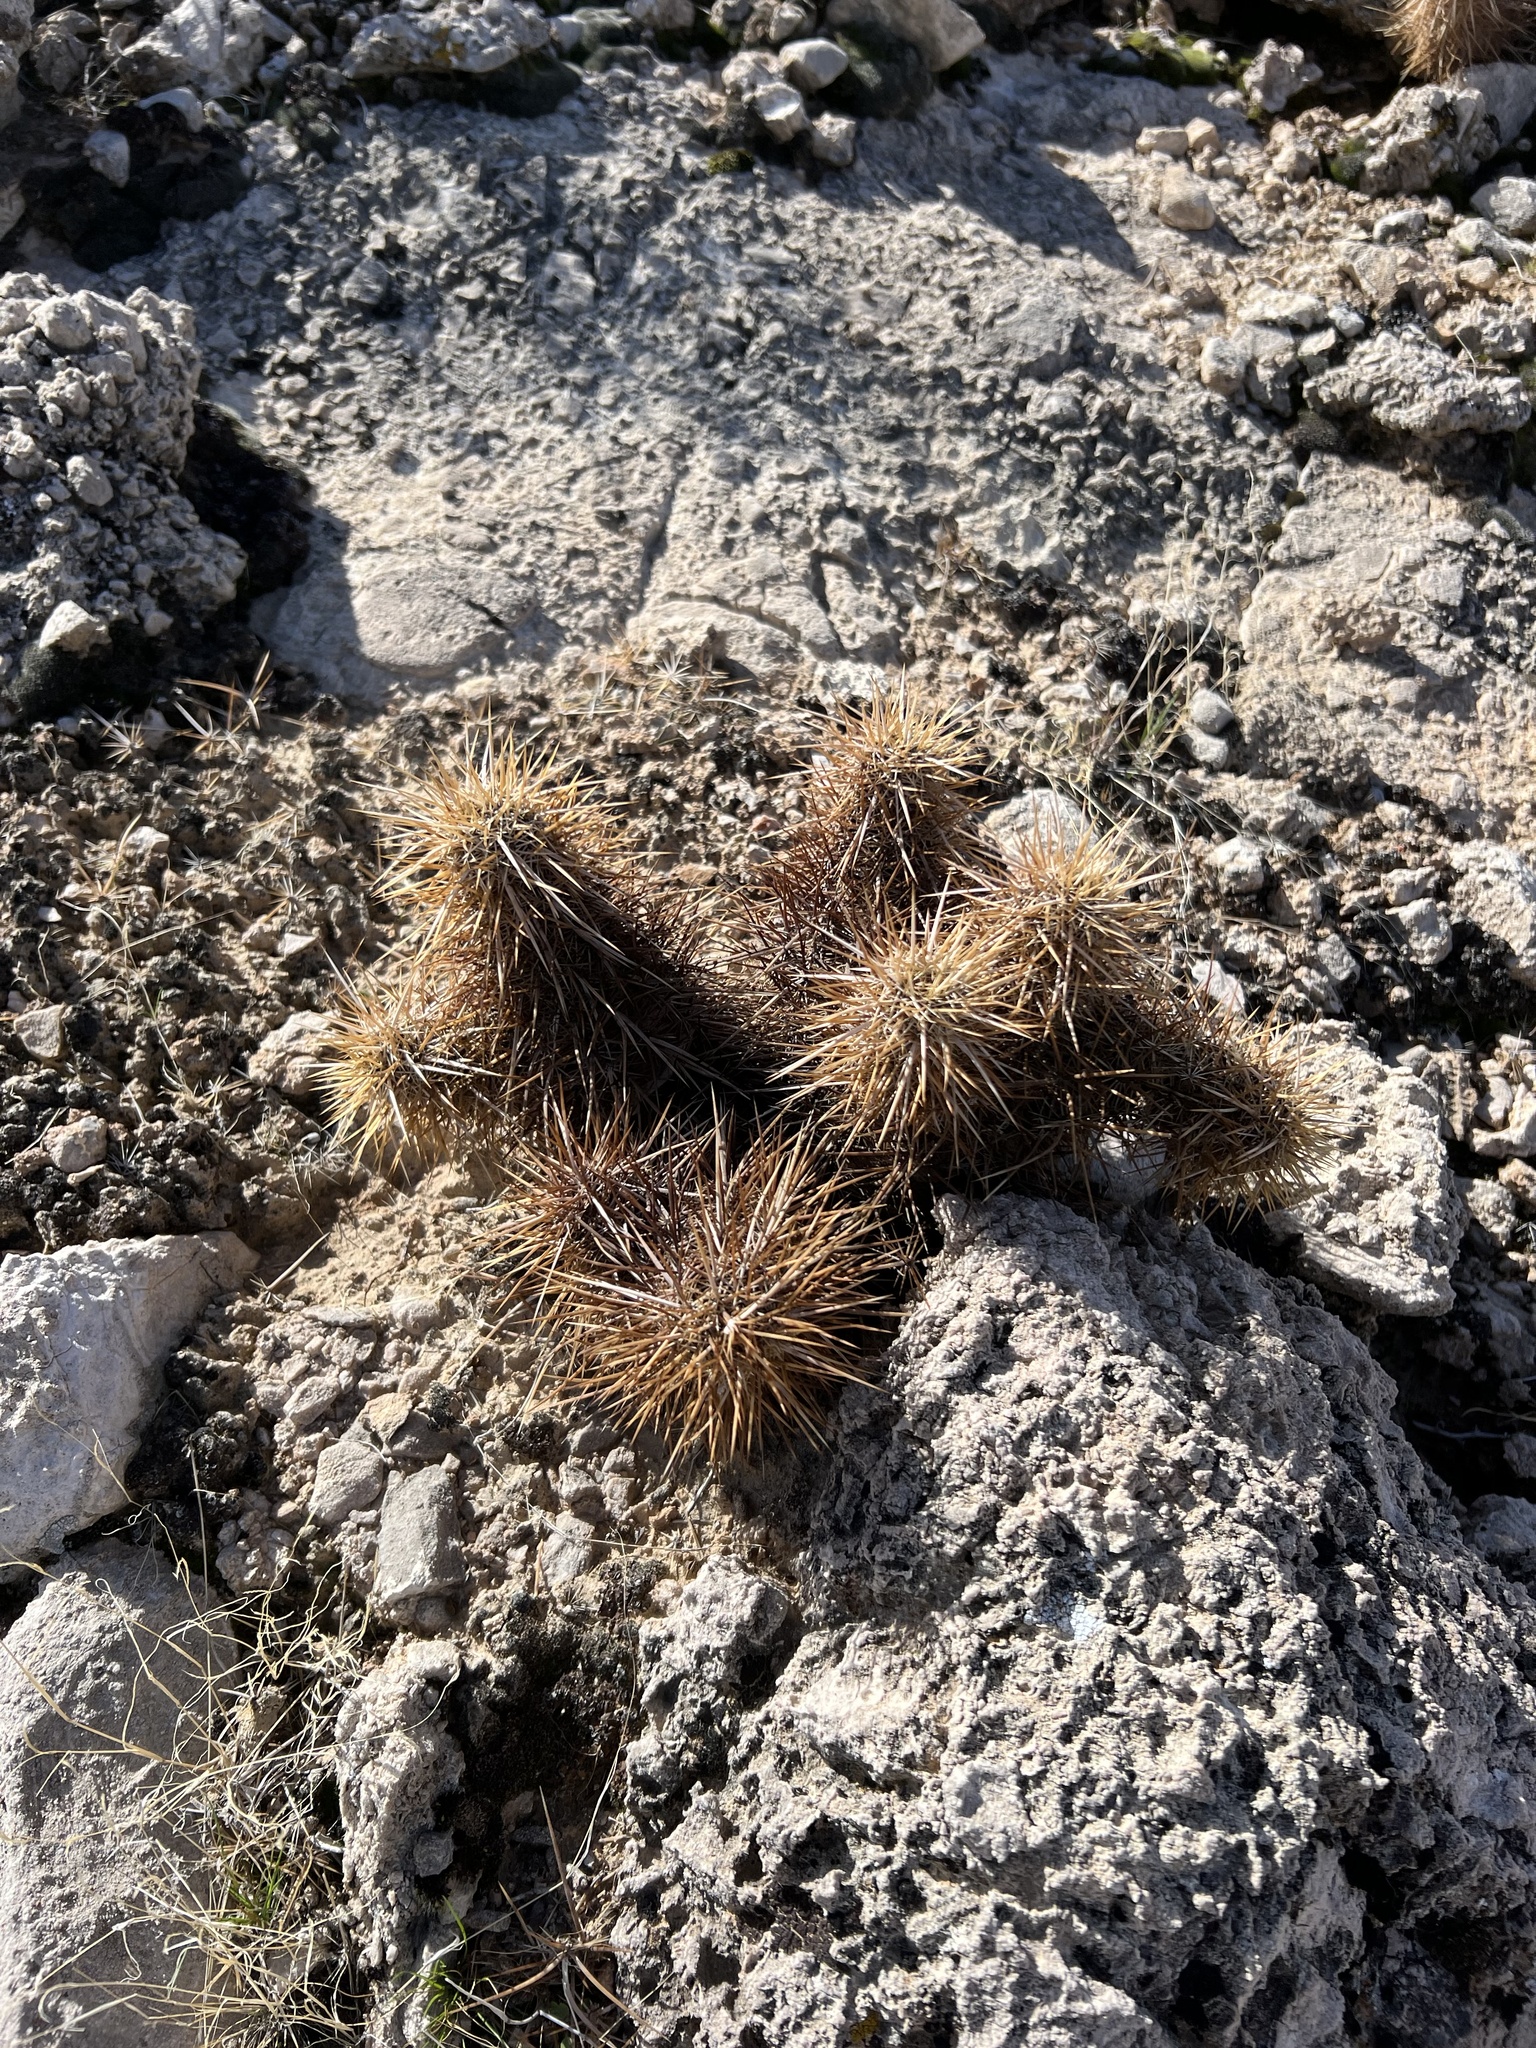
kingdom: Plantae
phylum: Tracheophyta
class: Magnoliopsida
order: Caryophyllales
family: Cactaceae
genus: Echinocereus
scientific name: Echinocereus engelmannii
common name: Engelmann's hedgehog cactus
